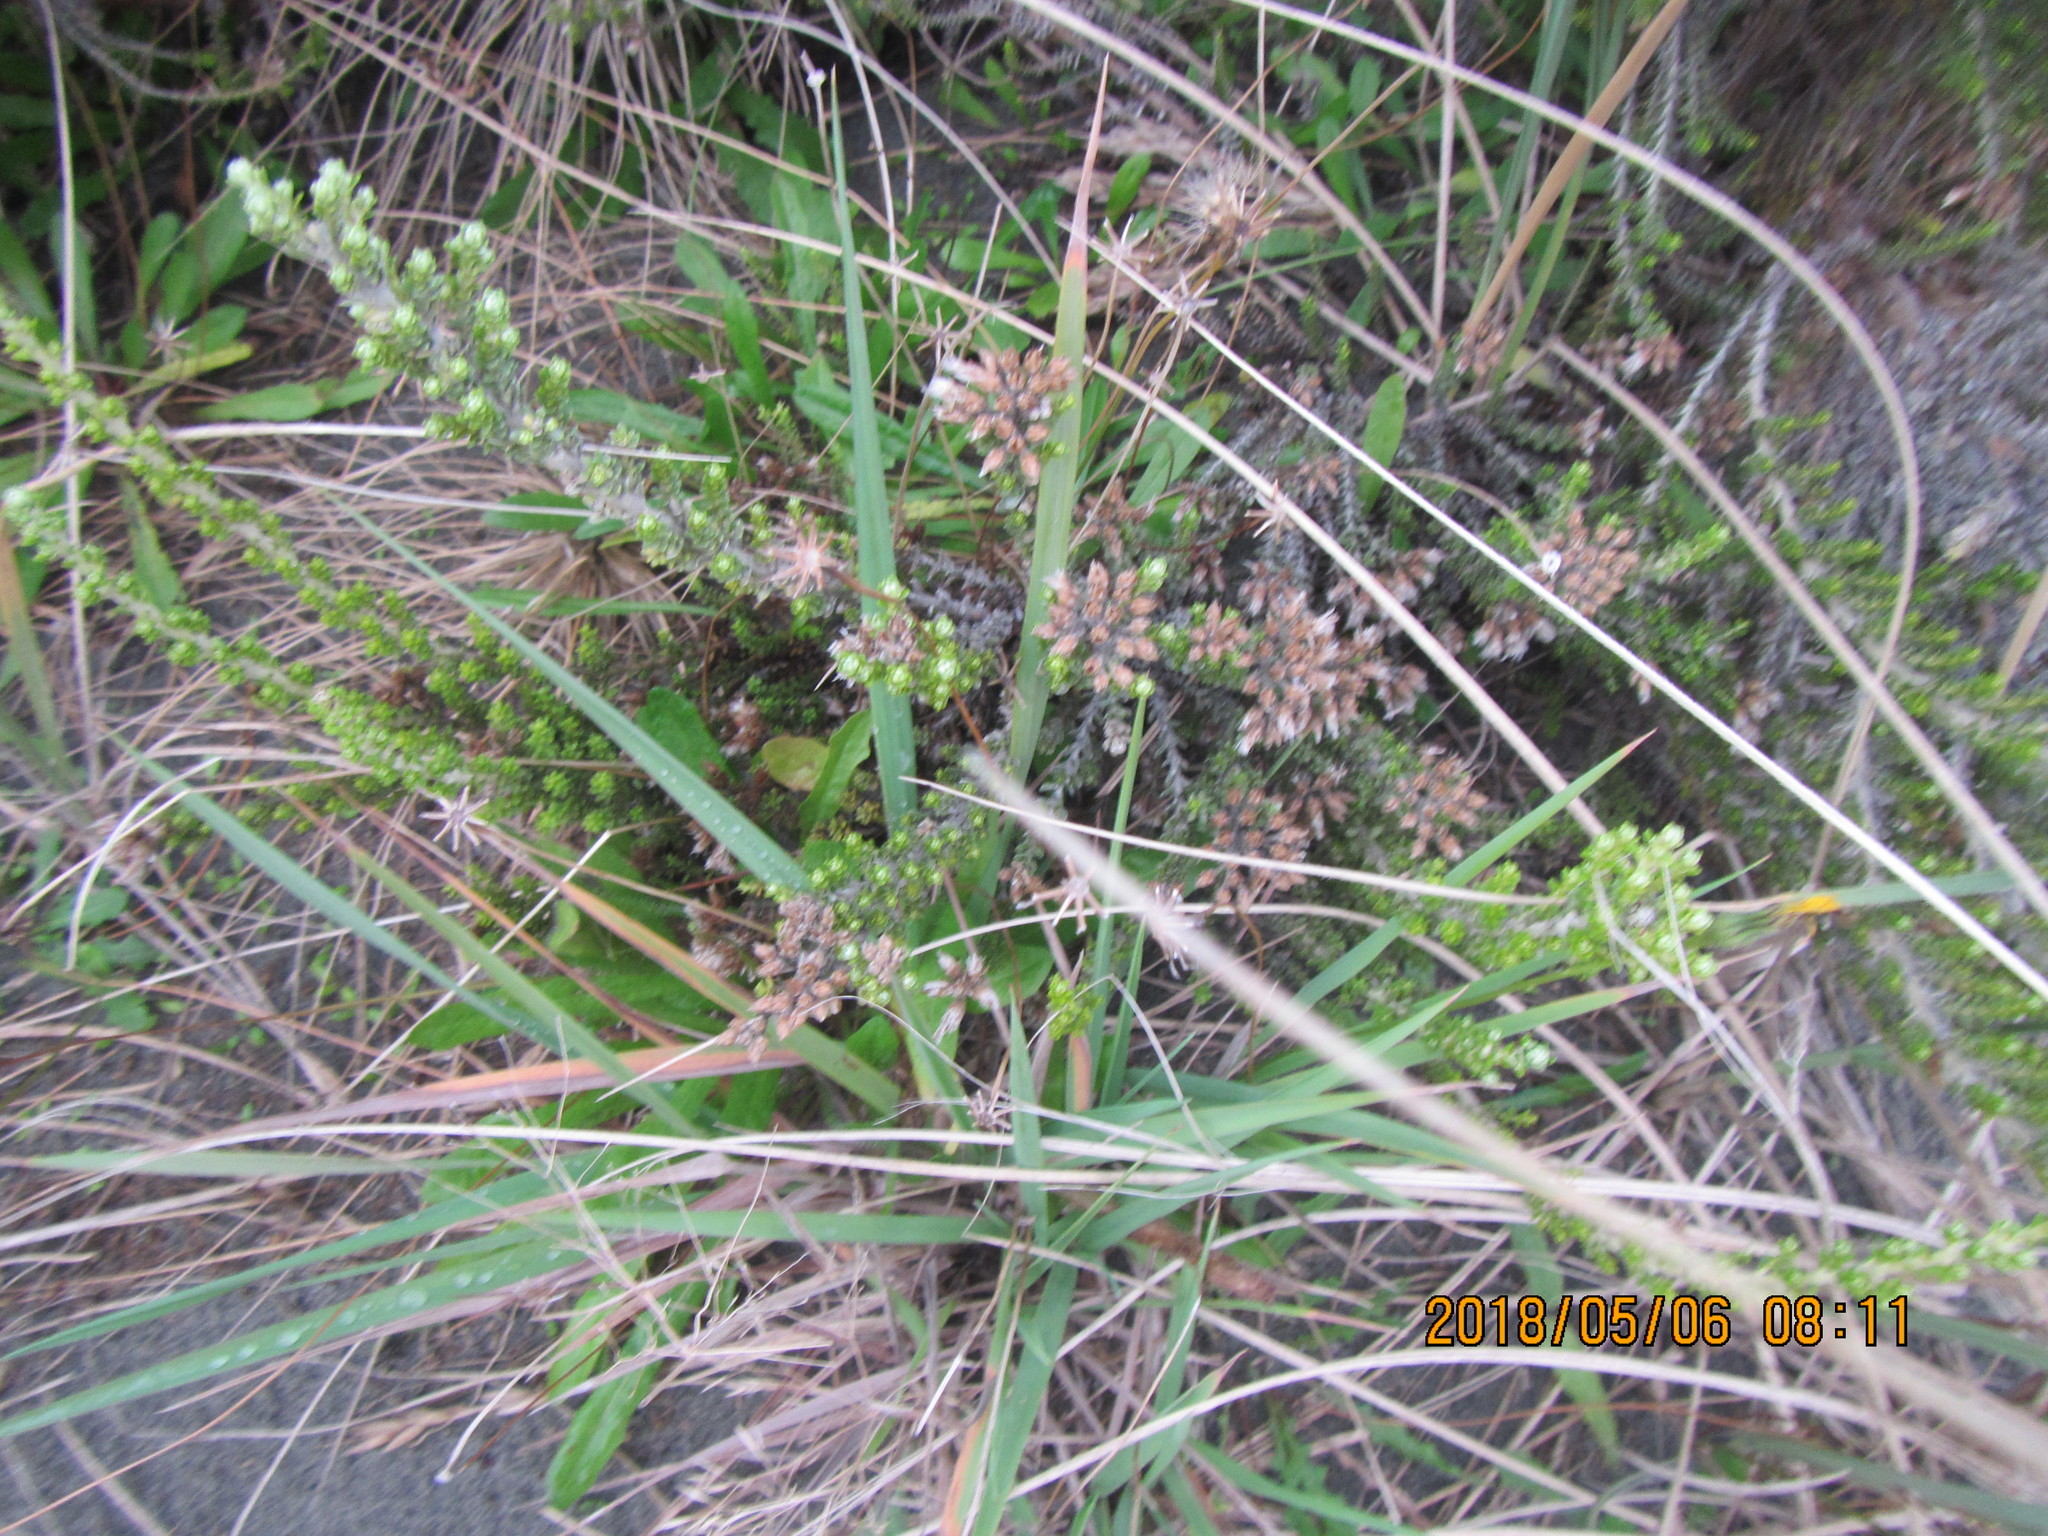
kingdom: Plantae
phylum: Tracheophyta
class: Magnoliopsida
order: Asterales
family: Asteraceae
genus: Ozothamnus
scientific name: Ozothamnus leptophyllus
